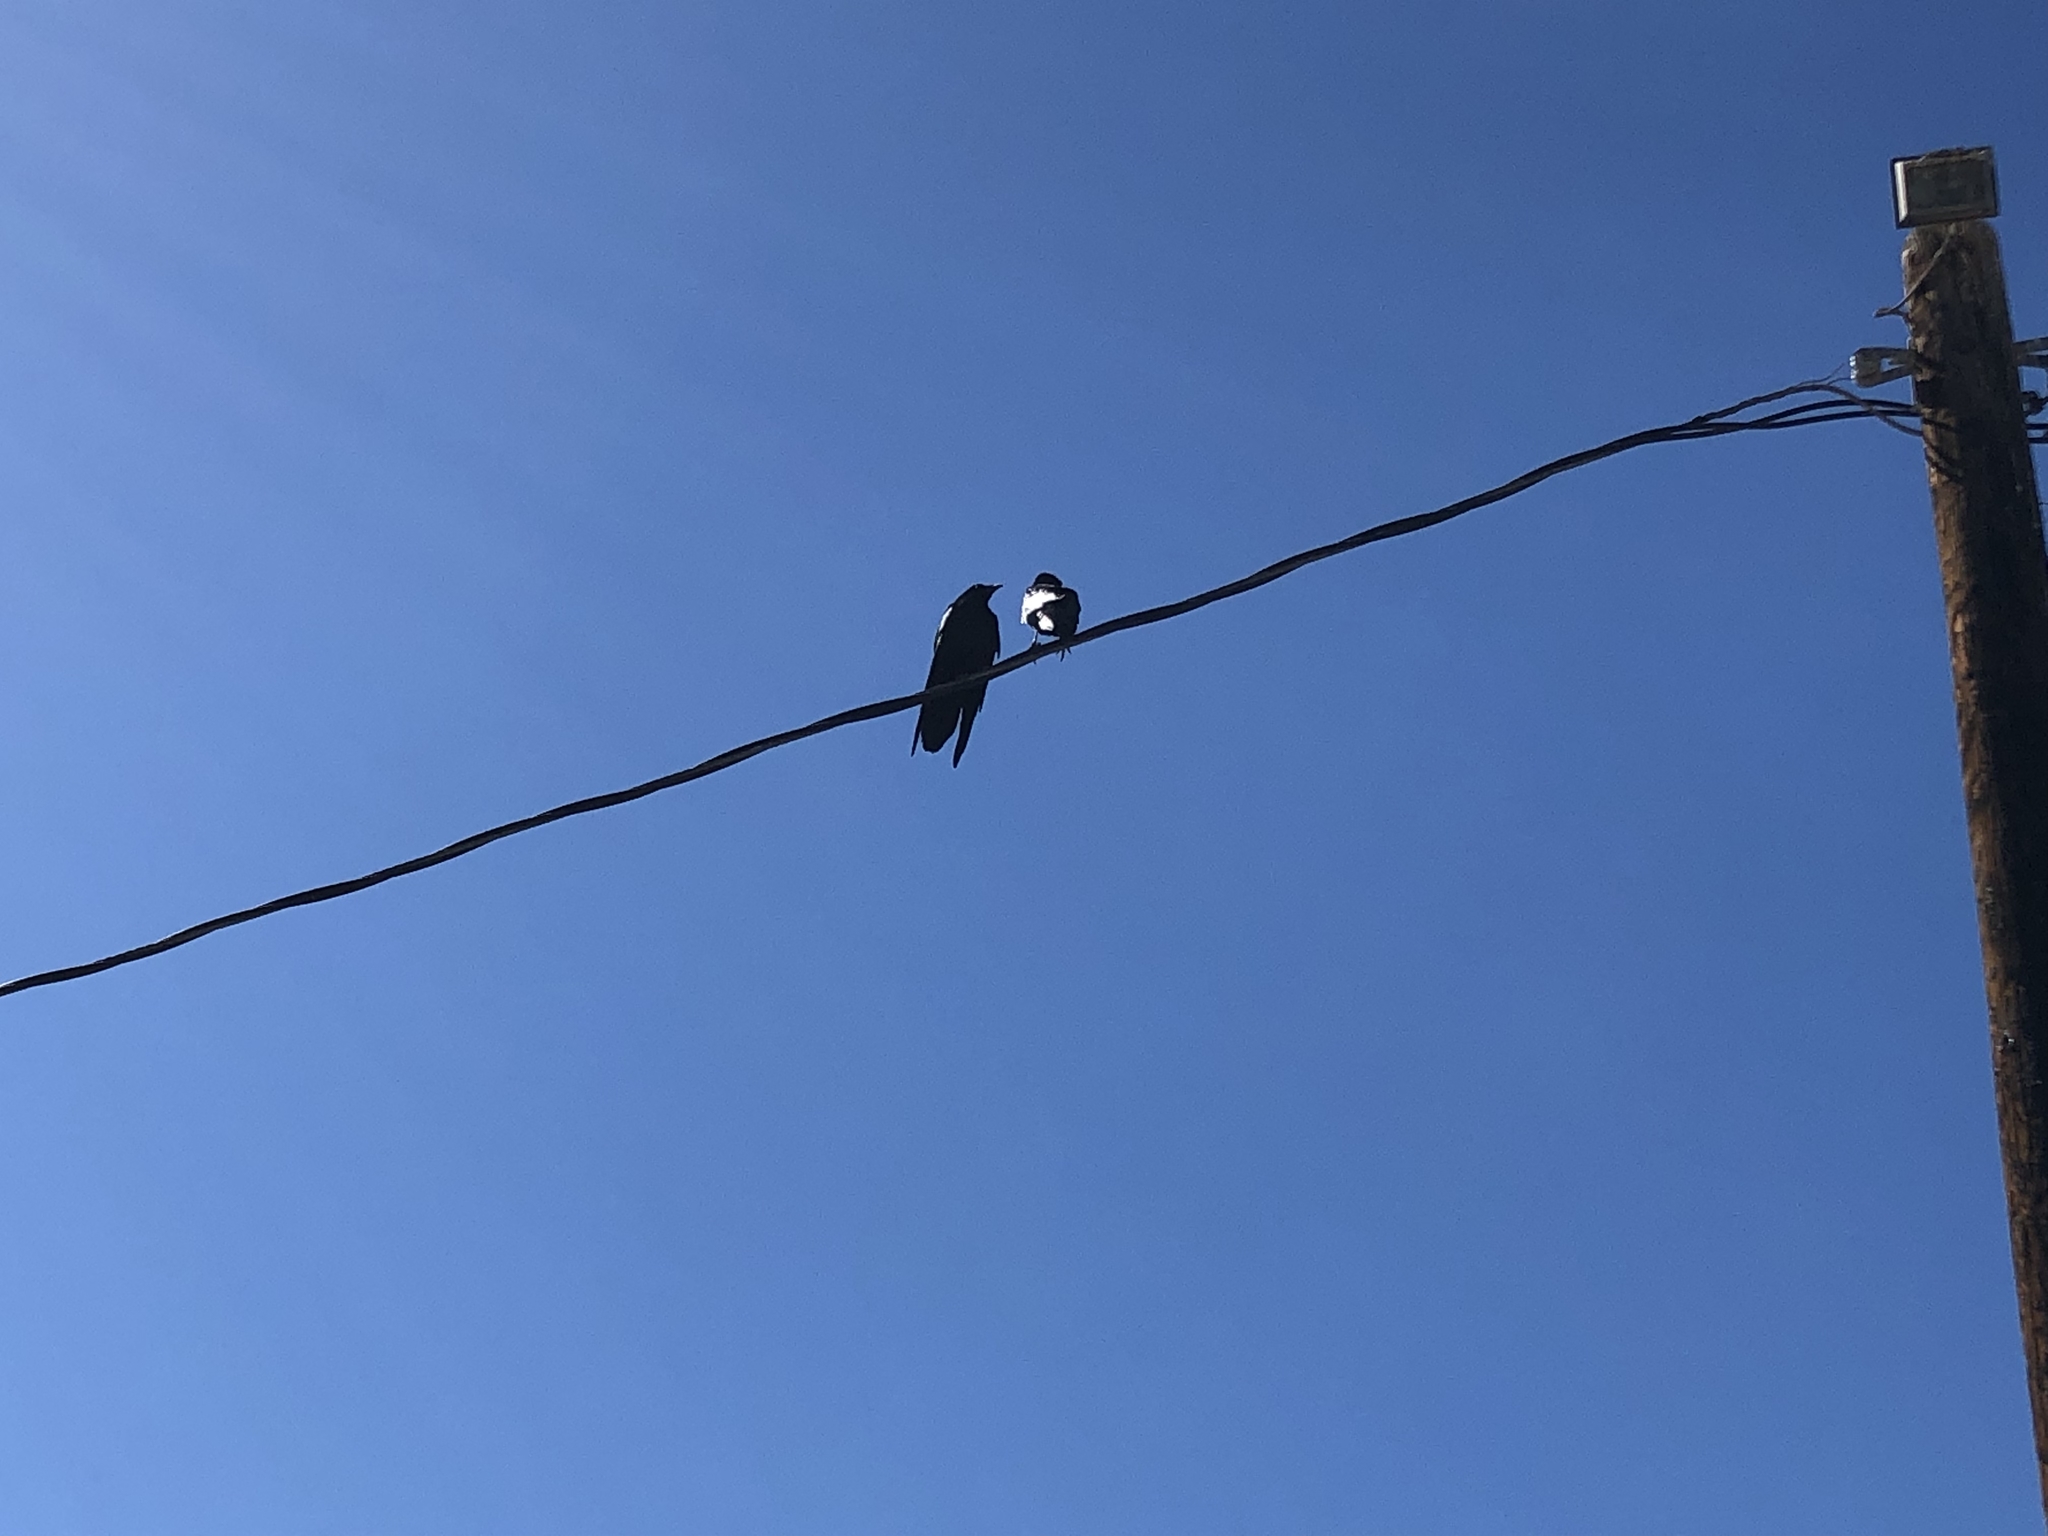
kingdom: Animalia
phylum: Chordata
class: Aves
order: Passeriformes
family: Corvidae
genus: Corvus
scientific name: Corvus corax
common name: Common raven
